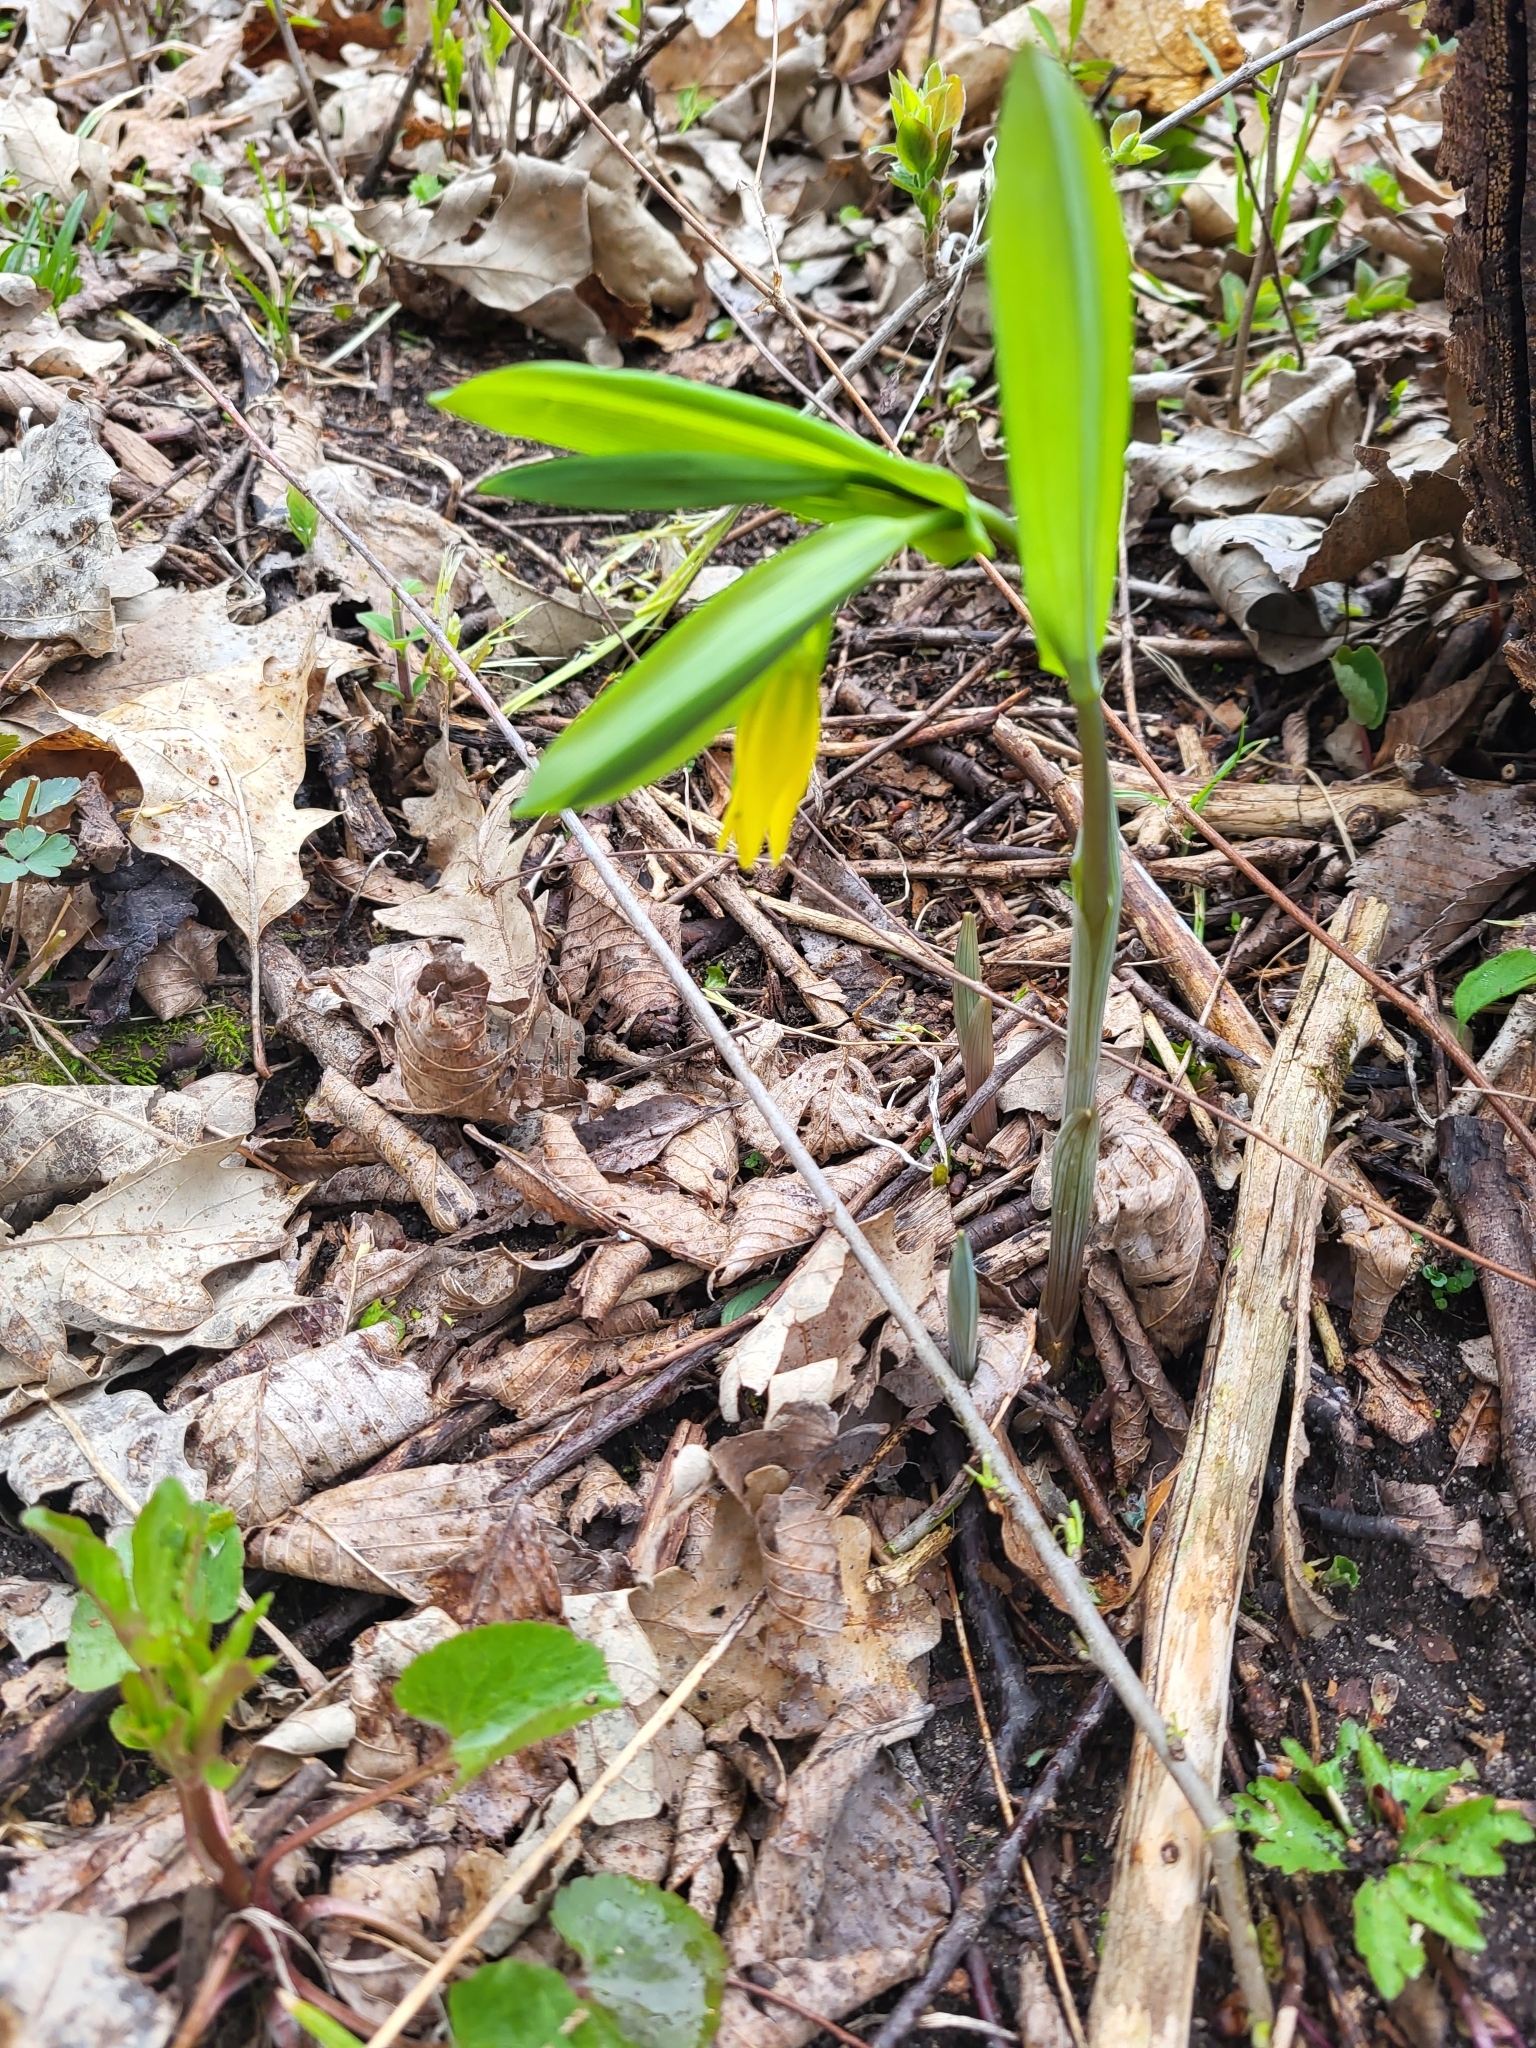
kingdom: Plantae
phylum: Tracheophyta
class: Liliopsida
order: Liliales
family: Colchicaceae
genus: Uvularia
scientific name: Uvularia grandiflora
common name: Bellwort
